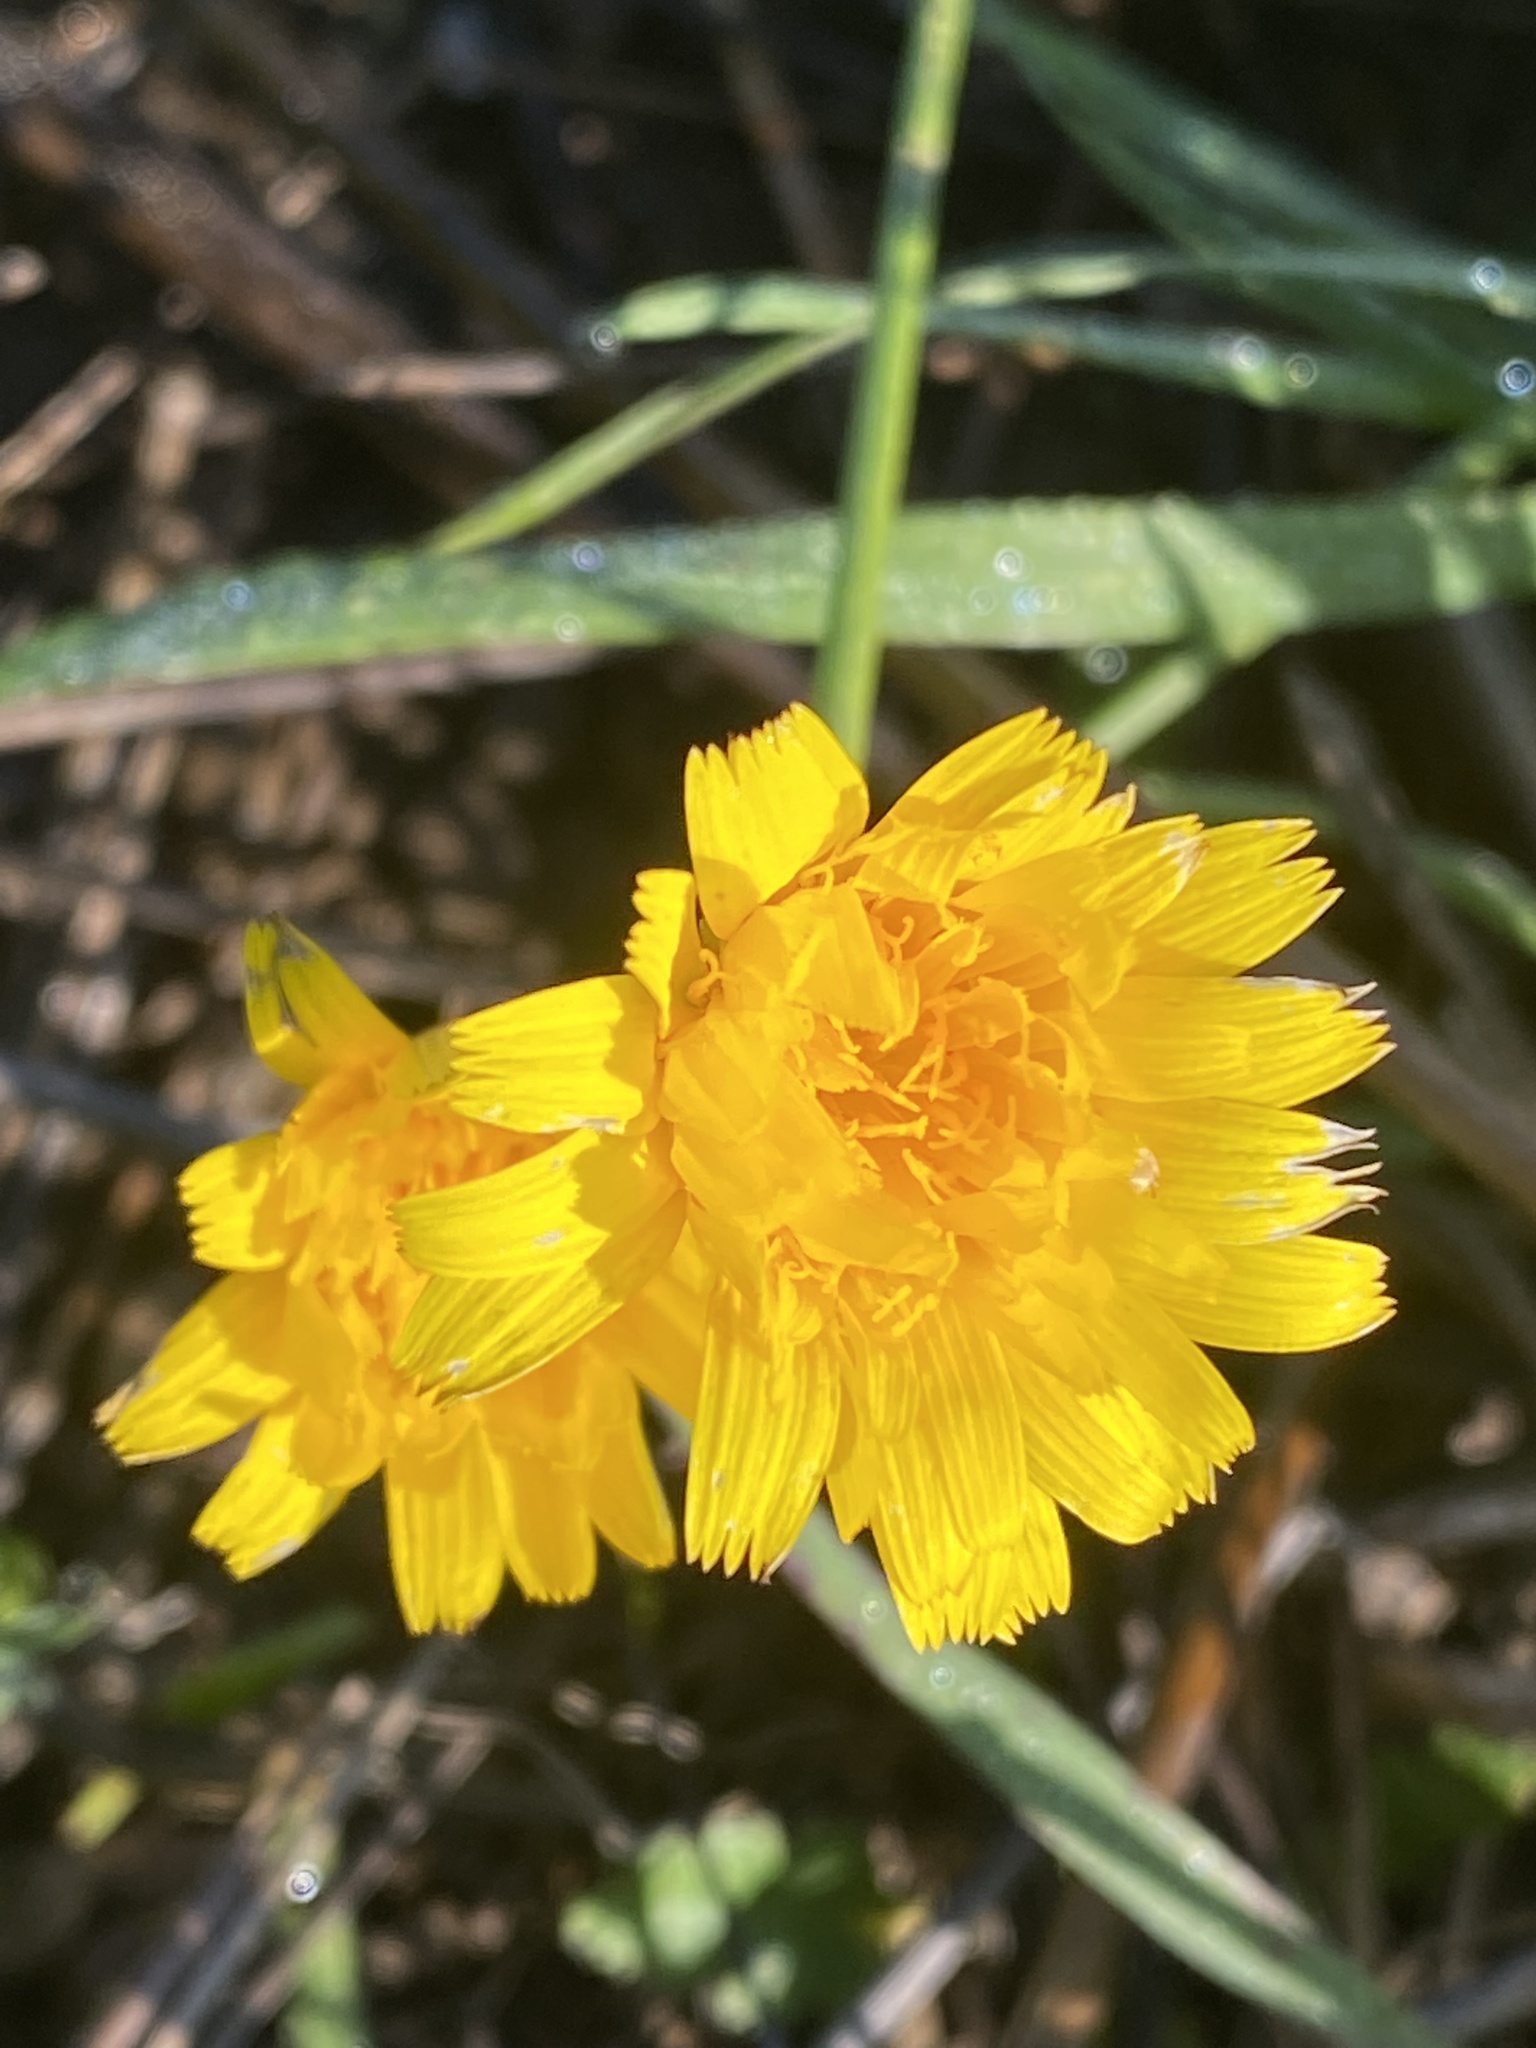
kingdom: Plantae
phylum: Tracheophyta
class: Magnoliopsida
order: Asterales
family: Asteraceae
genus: Hypochaeris
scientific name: Hypochaeris radicata
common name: Flatweed
